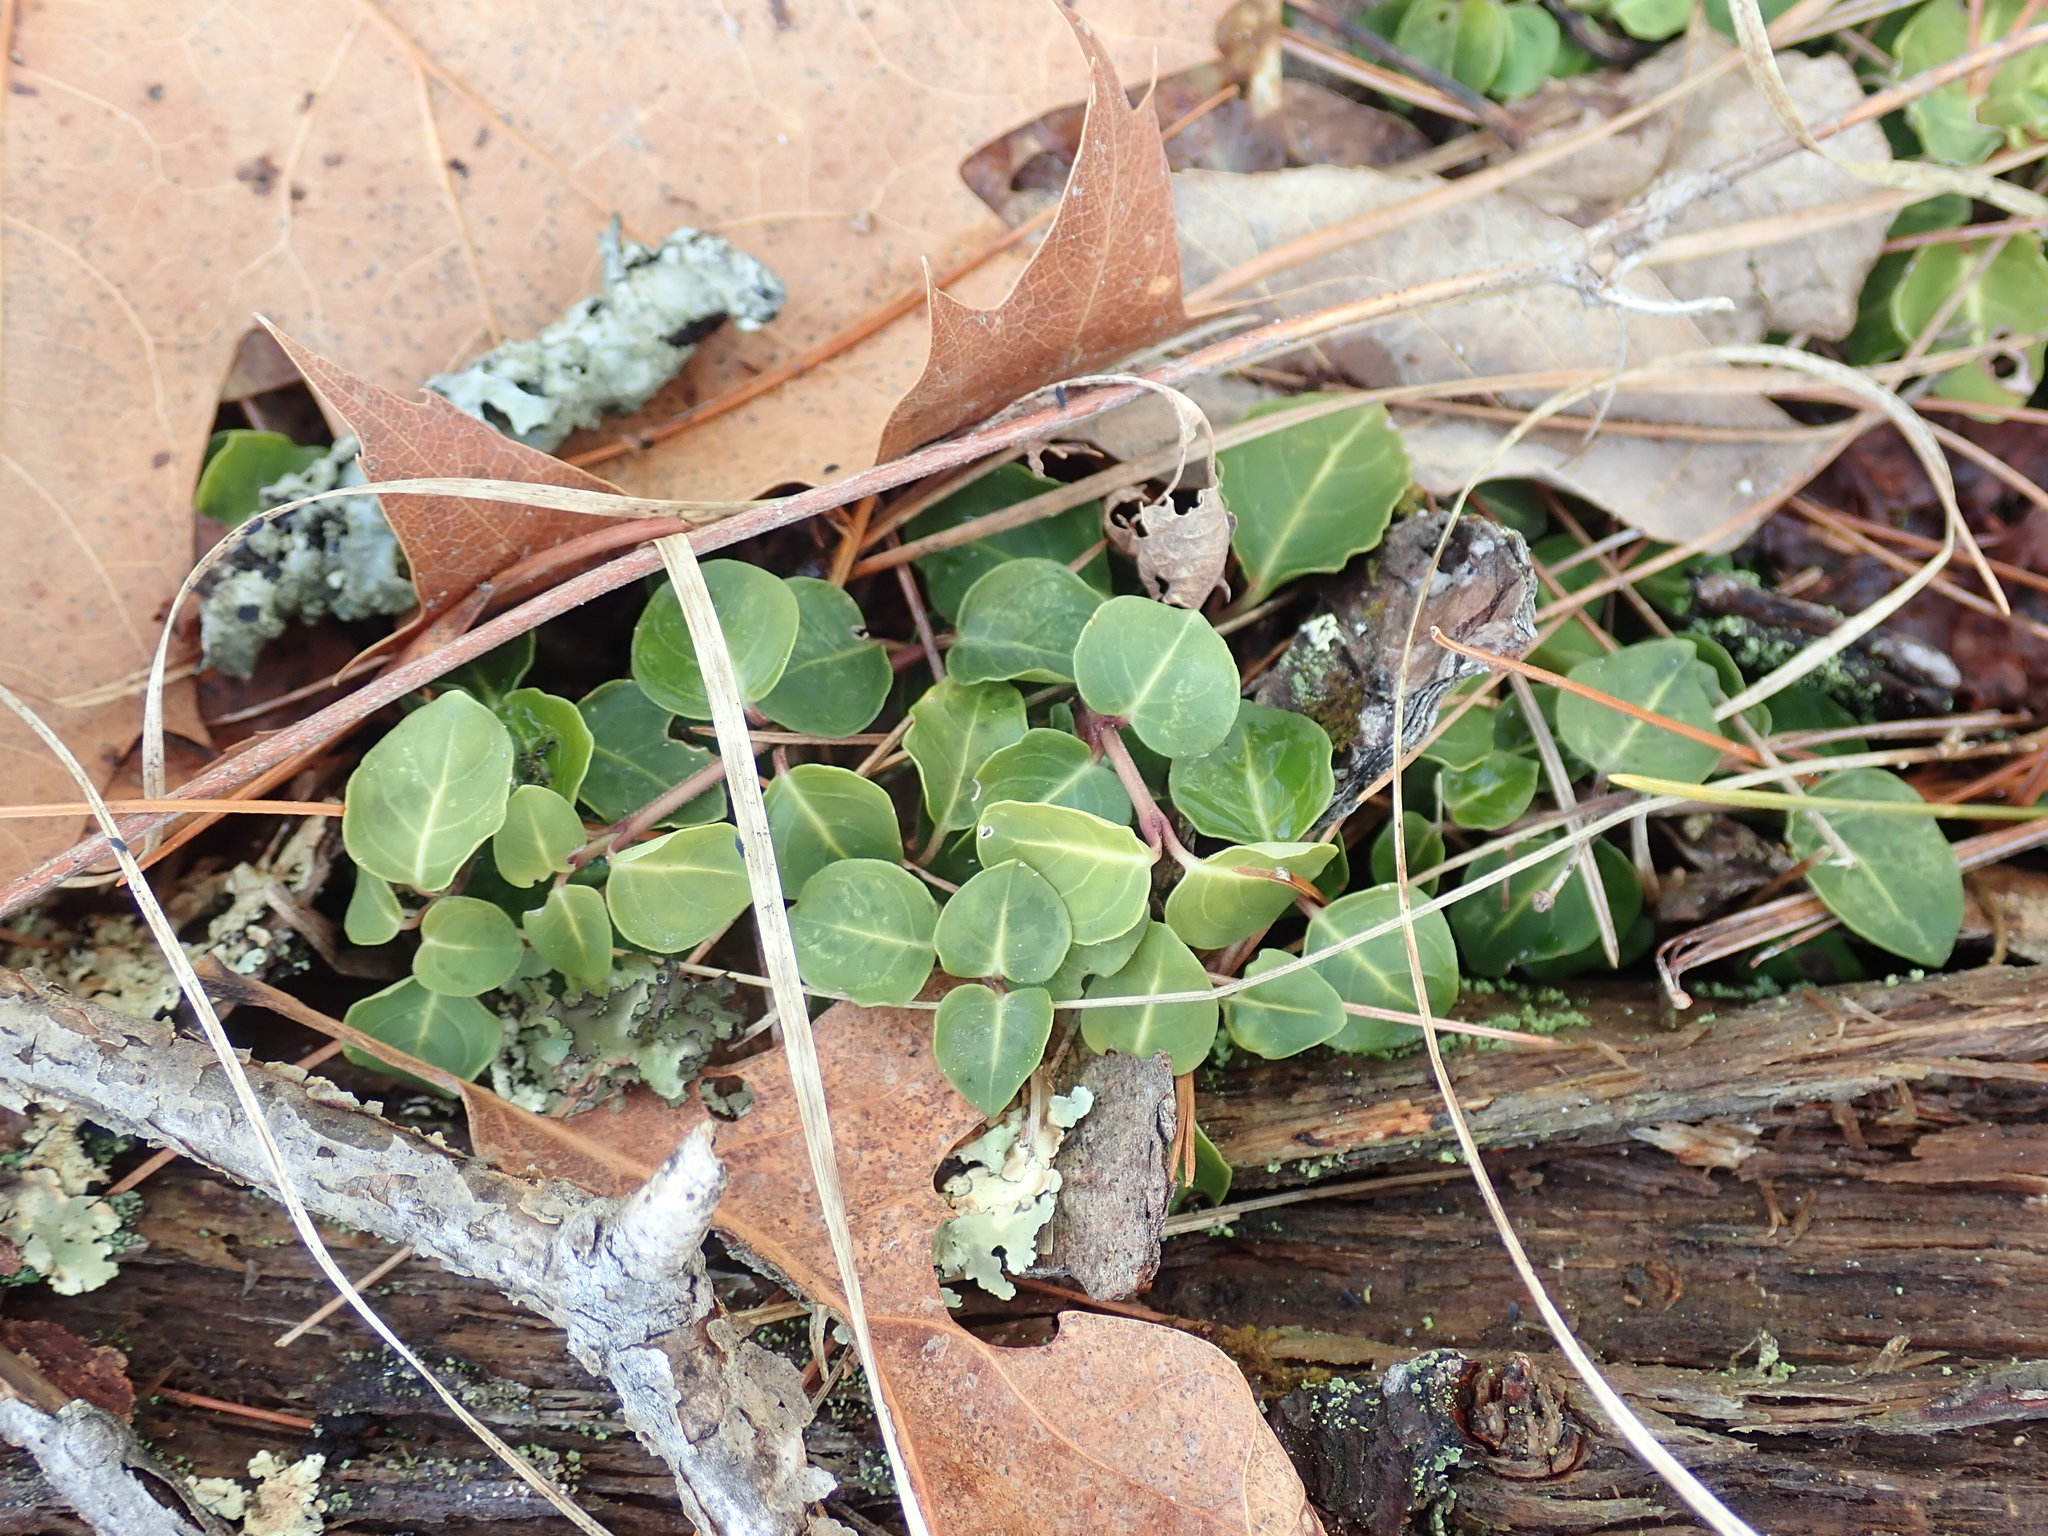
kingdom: Plantae
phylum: Tracheophyta
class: Magnoliopsida
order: Gentianales
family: Rubiaceae
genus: Mitchella
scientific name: Mitchella repens
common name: Partridge-berry
